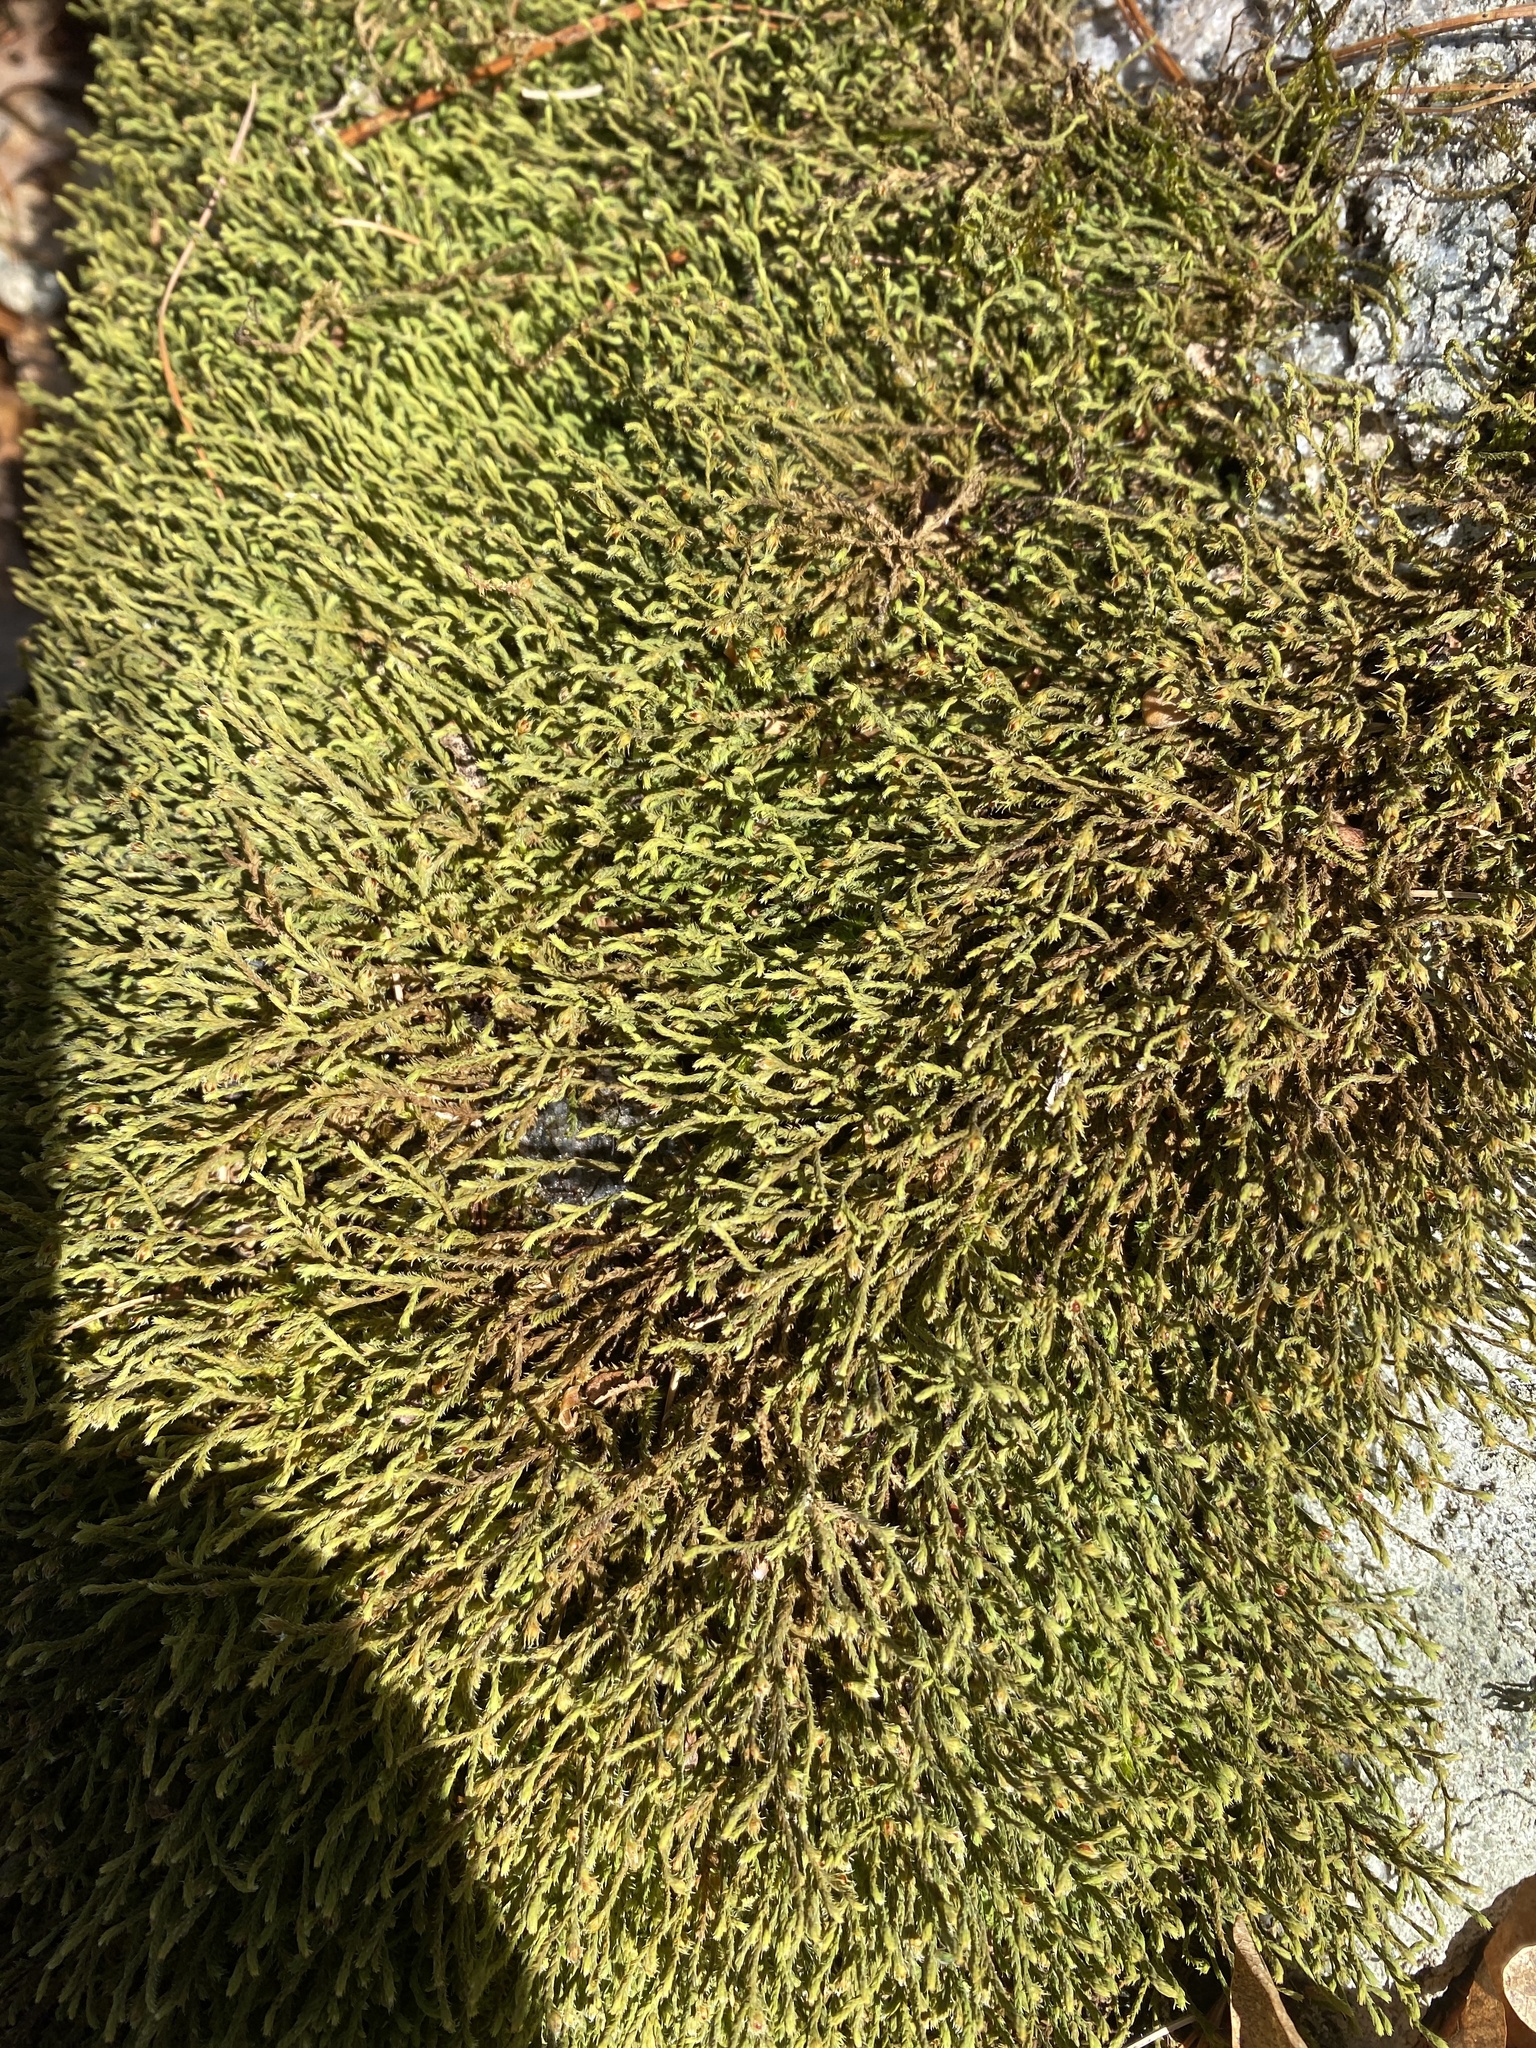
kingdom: Plantae
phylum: Bryophyta
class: Bryopsida
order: Hedwigiales
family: Hedwigiaceae
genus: Hedwigia
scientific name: Hedwigia ciliata
